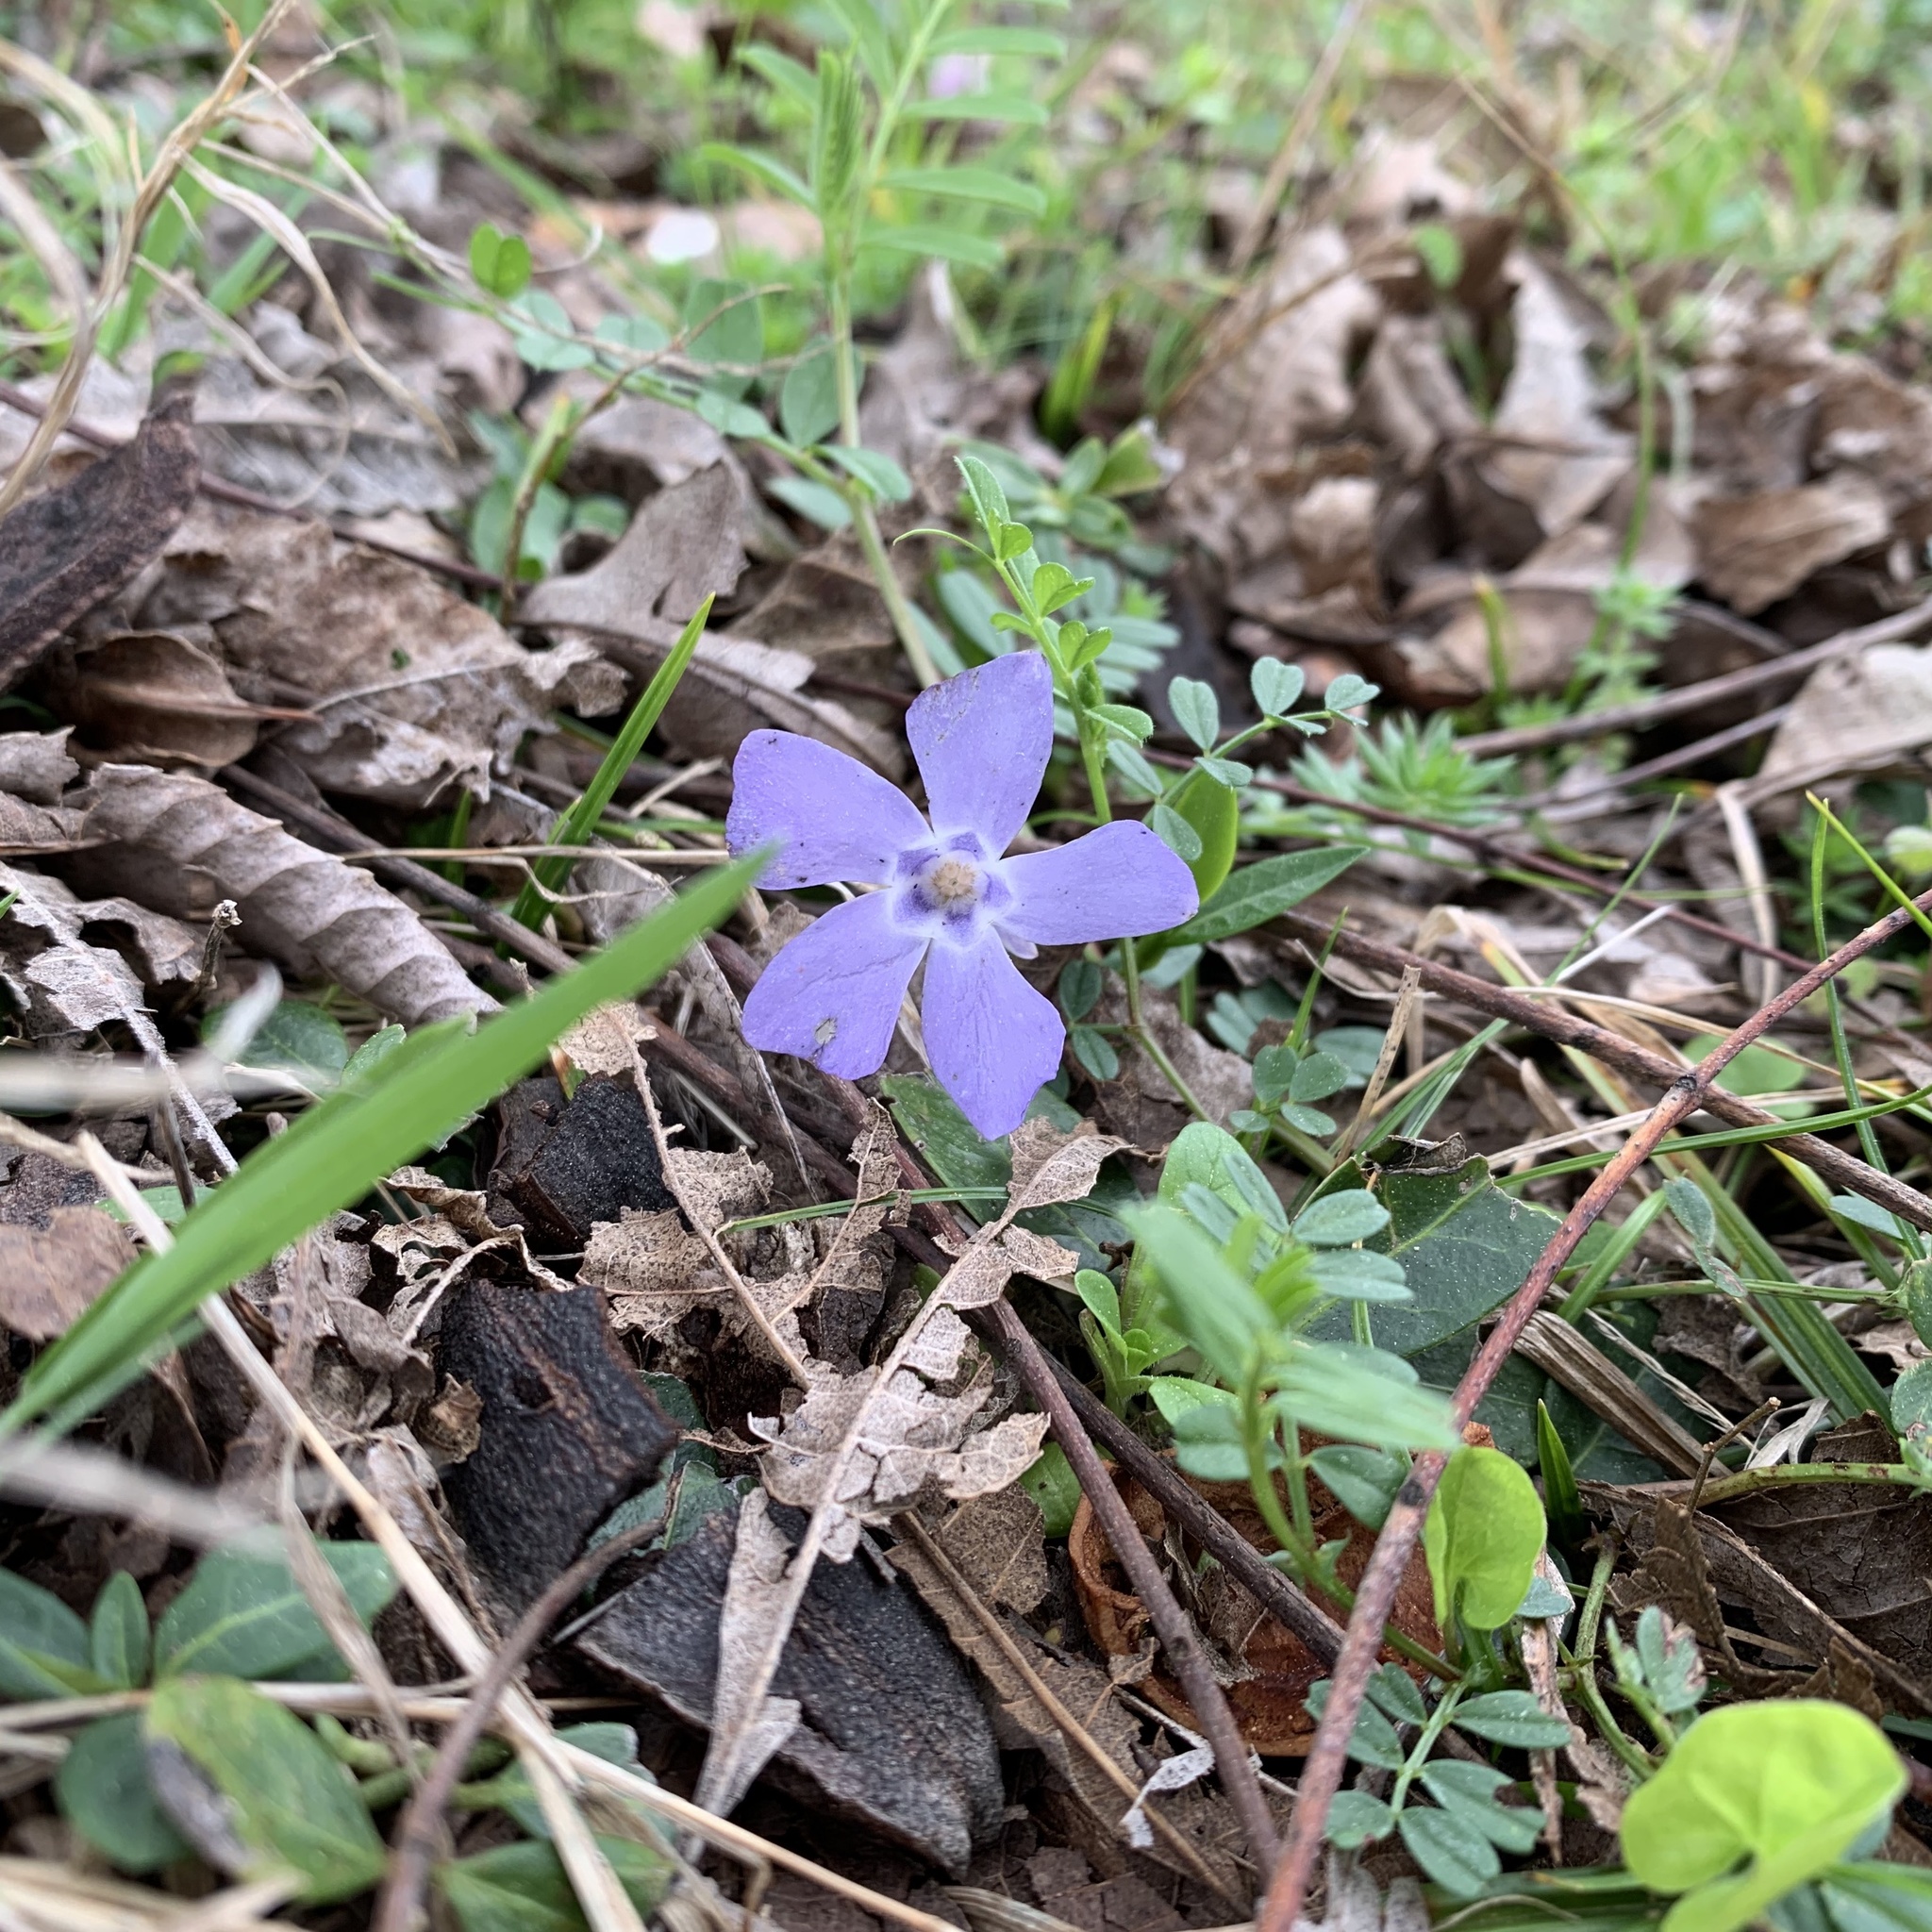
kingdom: Plantae
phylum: Tracheophyta
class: Magnoliopsida
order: Gentianales
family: Apocynaceae
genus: Vinca
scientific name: Vinca minor
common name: Lesser periwinkle
